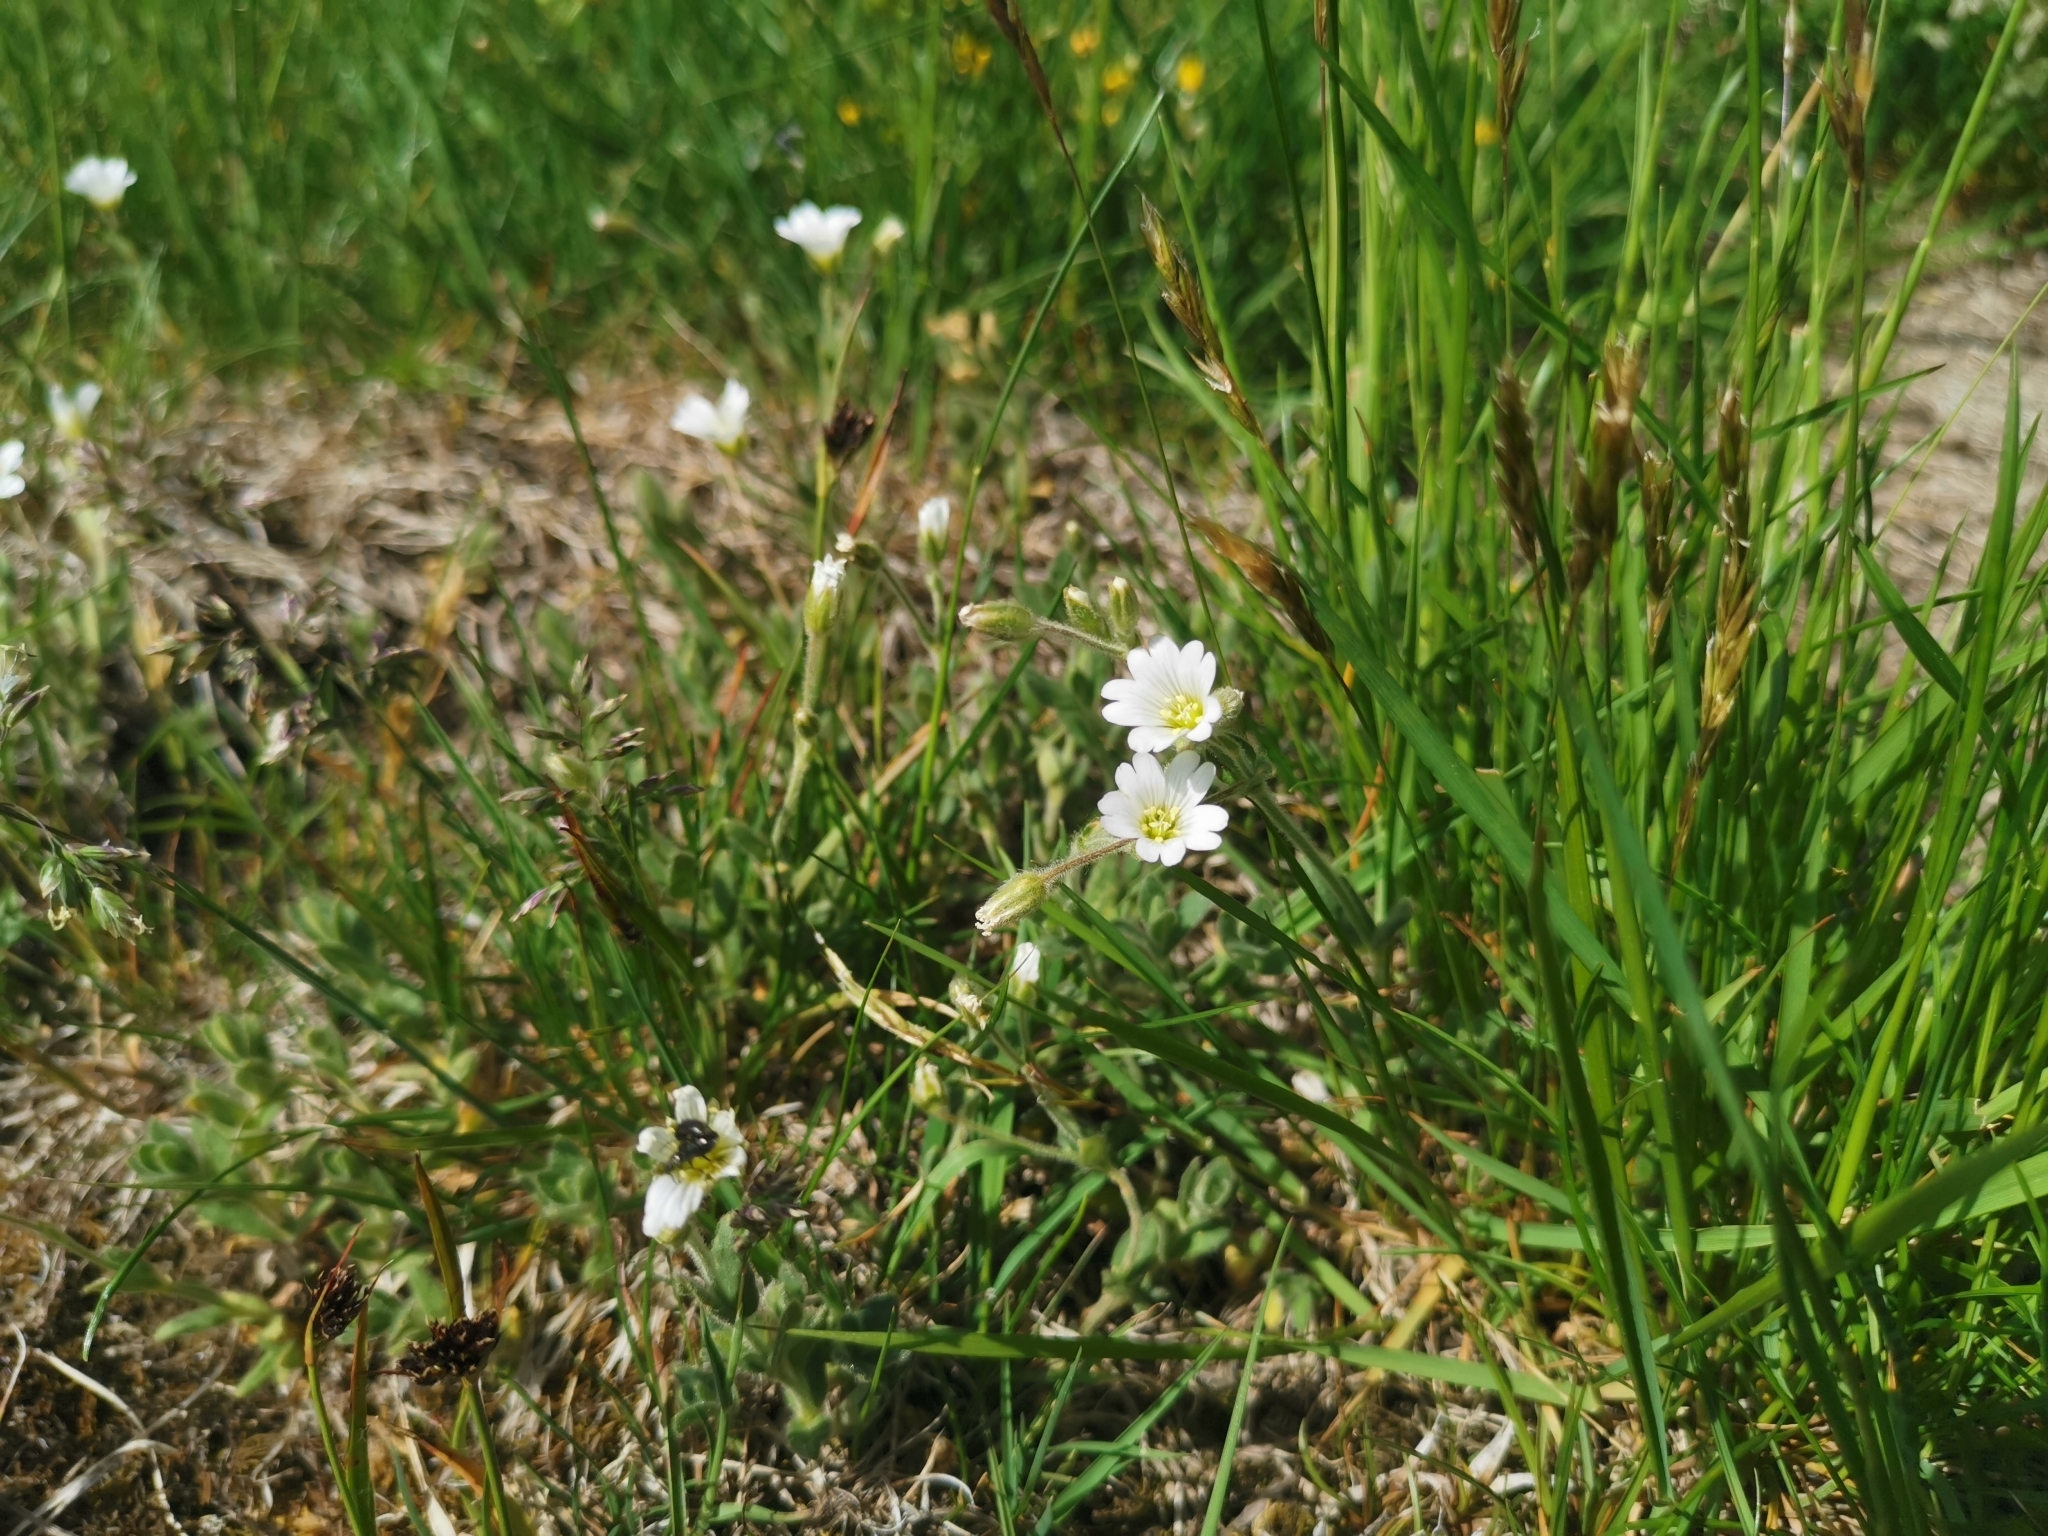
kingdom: Plantae
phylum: Tracheophyta
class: Magnoliopsida
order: Caryophyllales
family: Caryophyllaceae
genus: Cerastium
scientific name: Cerastium arvense
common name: Field mouse-ear
